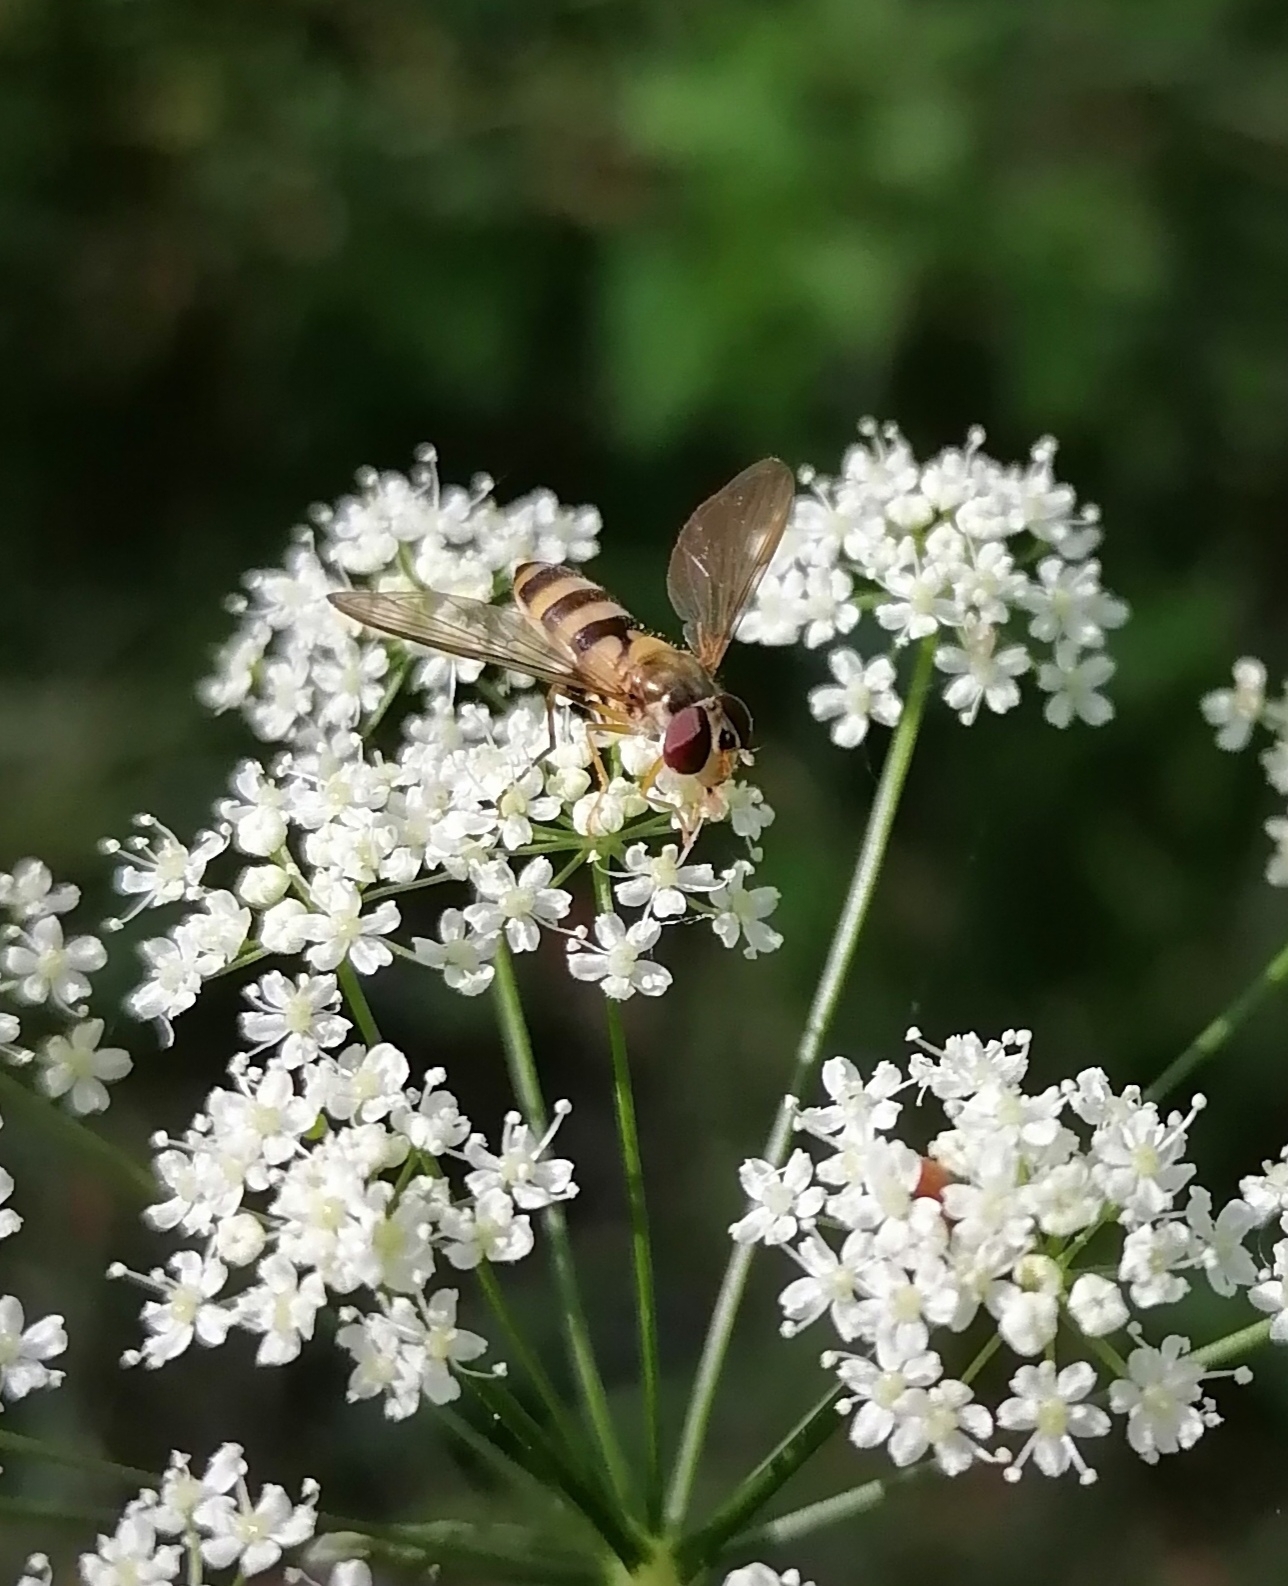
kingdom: Animalia
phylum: Arthropoda
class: Insecta
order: Diptera
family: Syrphidae
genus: Meliscaeva
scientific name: Meliscaeva cinctella
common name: American thintail fly
